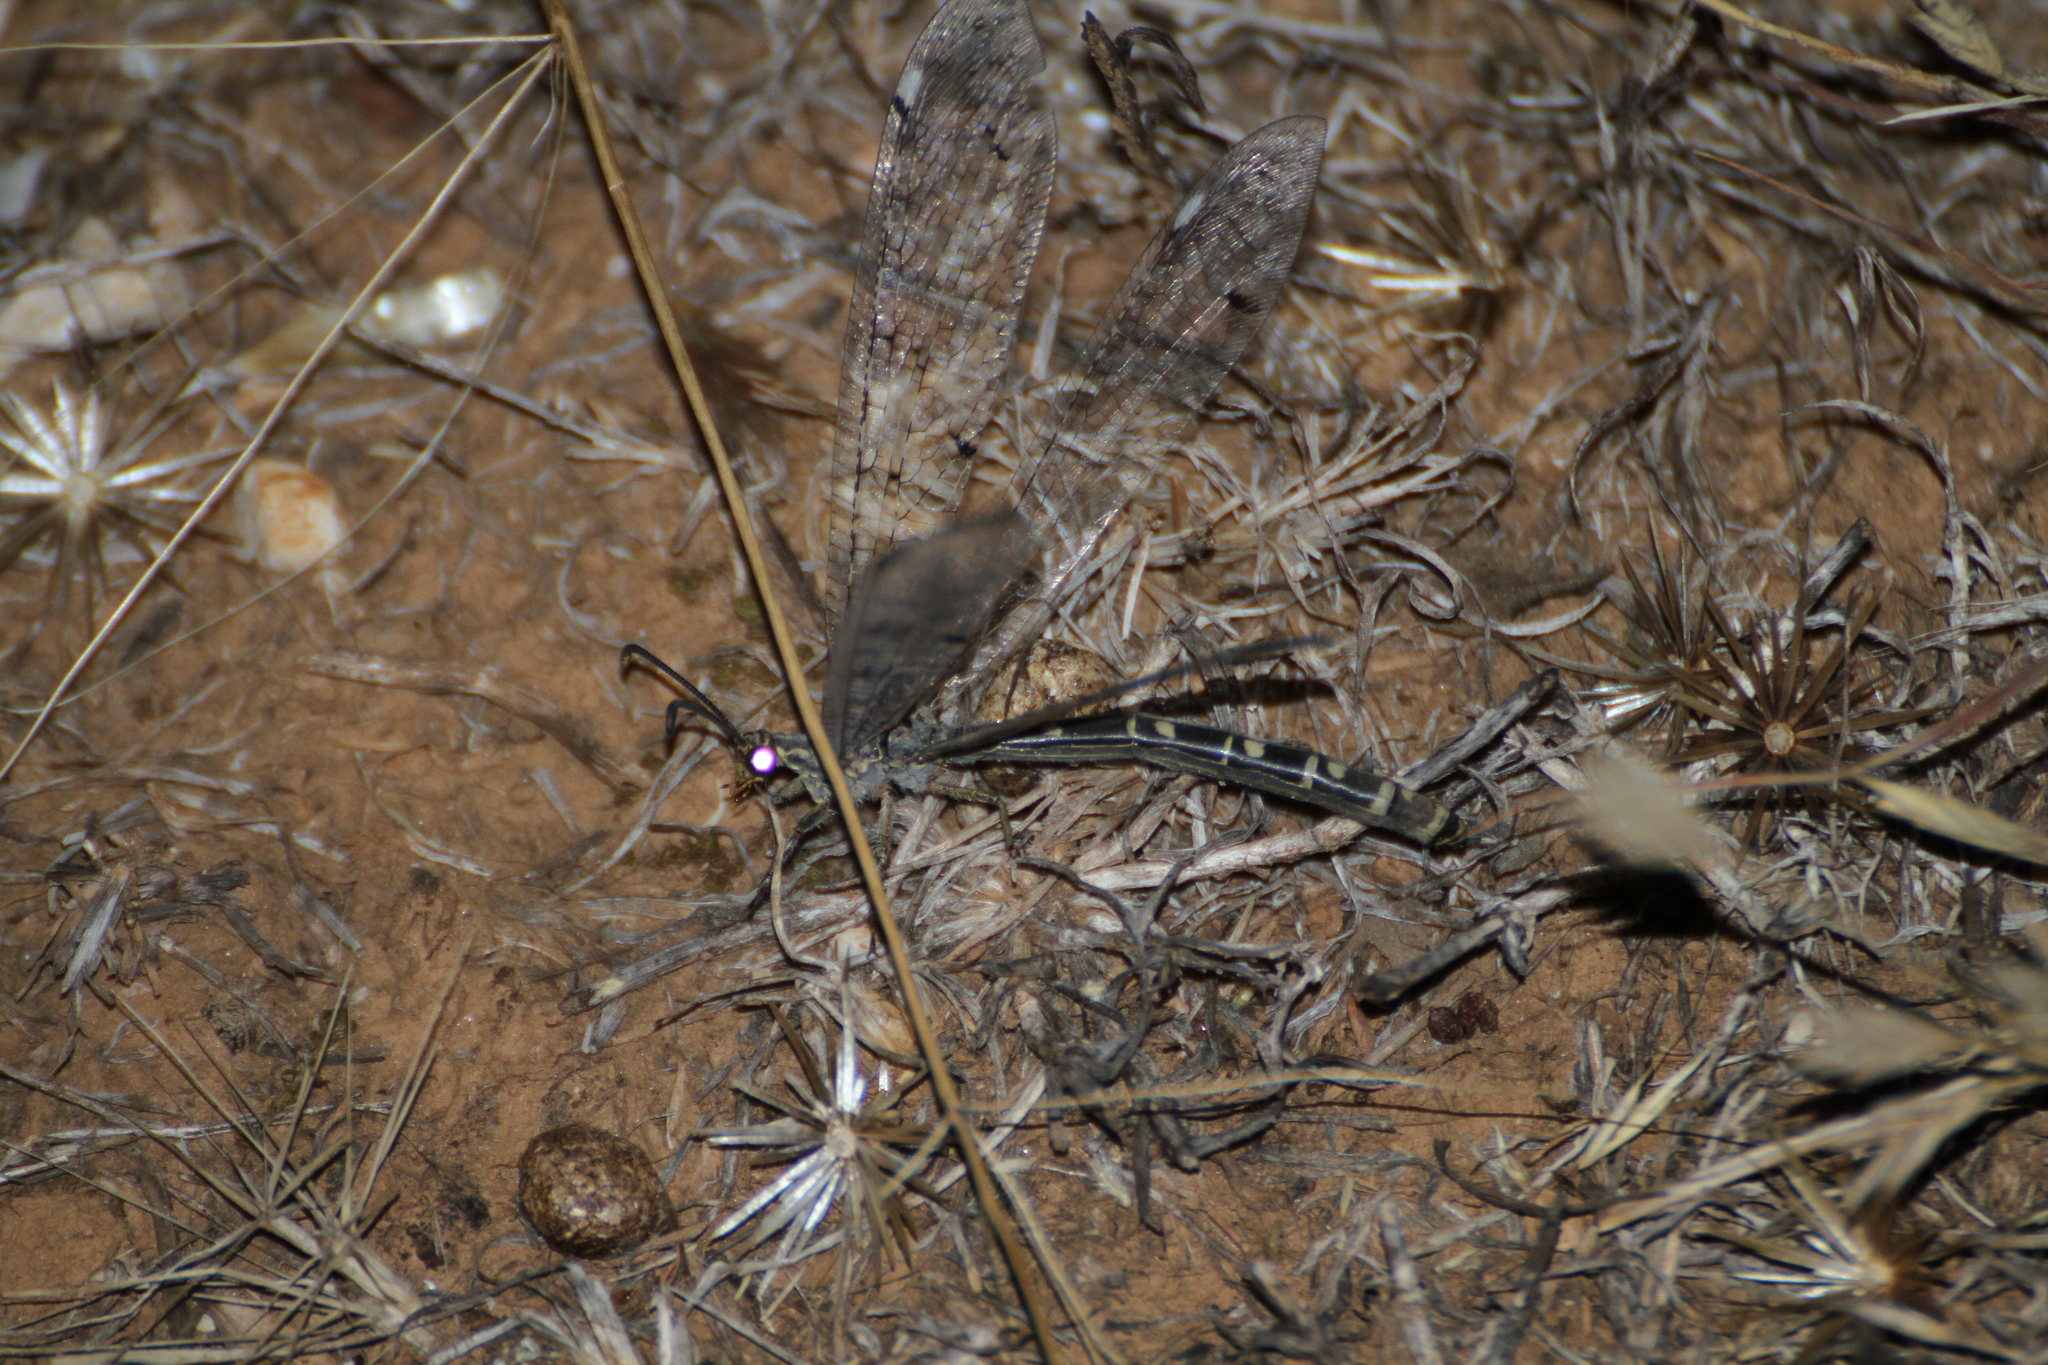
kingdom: Animalia
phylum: Arthropoda
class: Insecta
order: Neuroptera
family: Myrmeleontidae
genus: Distoleon
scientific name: Distoleon tetragrammicus
